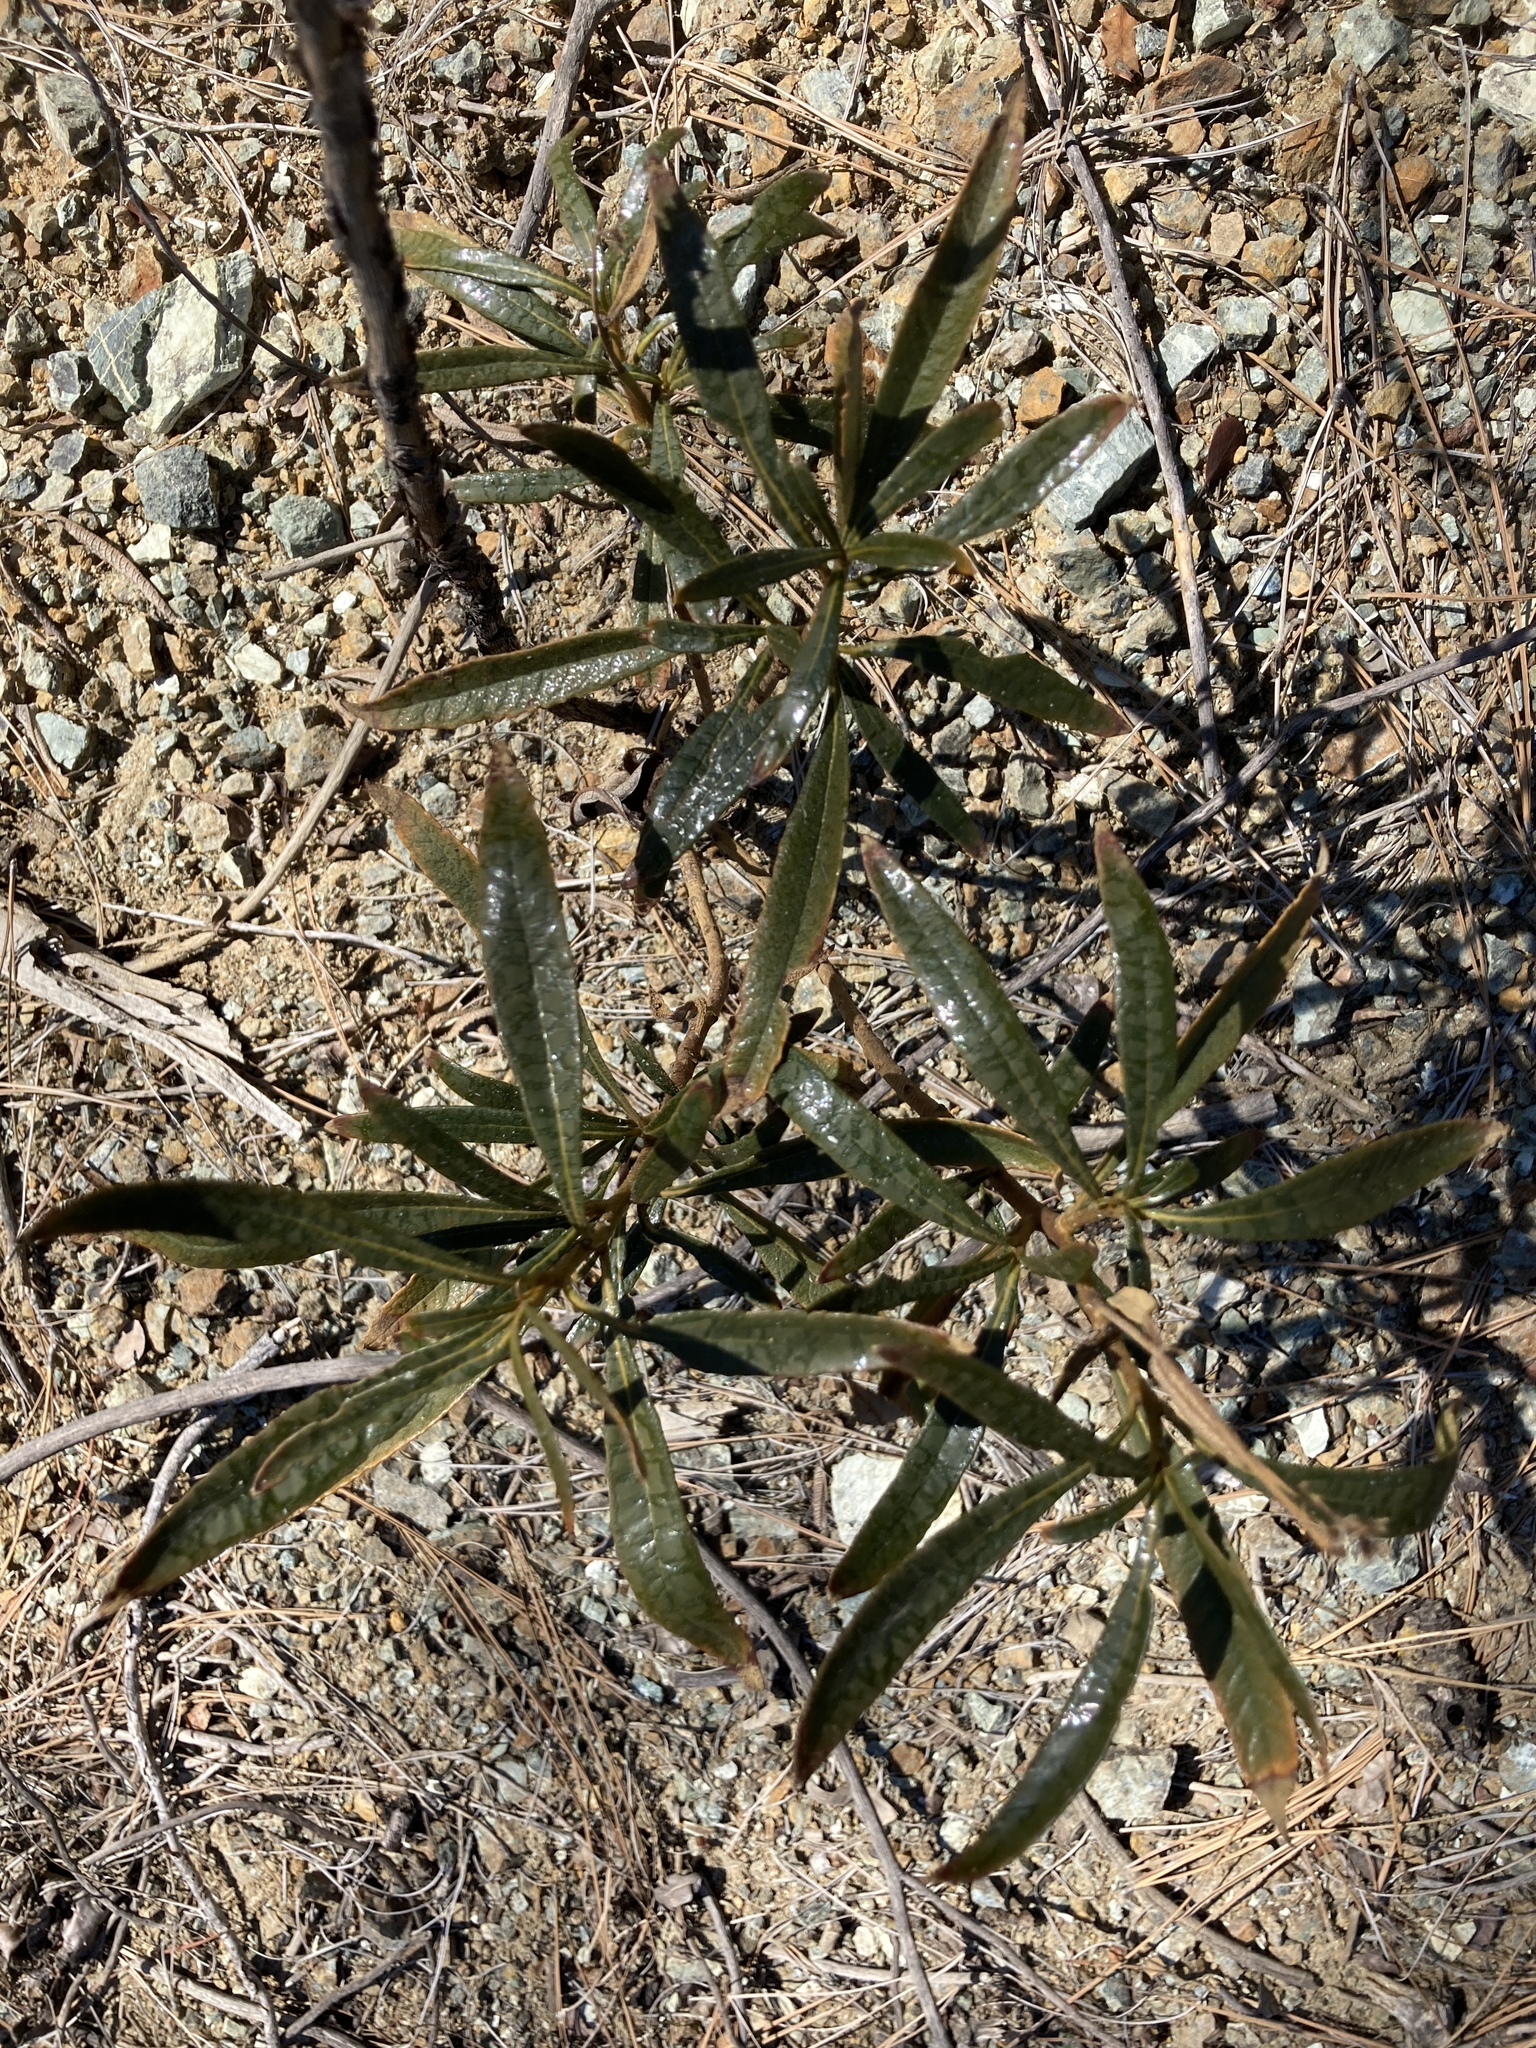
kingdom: Plantae
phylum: Tracheophyta
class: Magnoliopsida
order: Boraginales
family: Namaceae
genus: Eriodictyon
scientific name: Eriodictyon californicum
